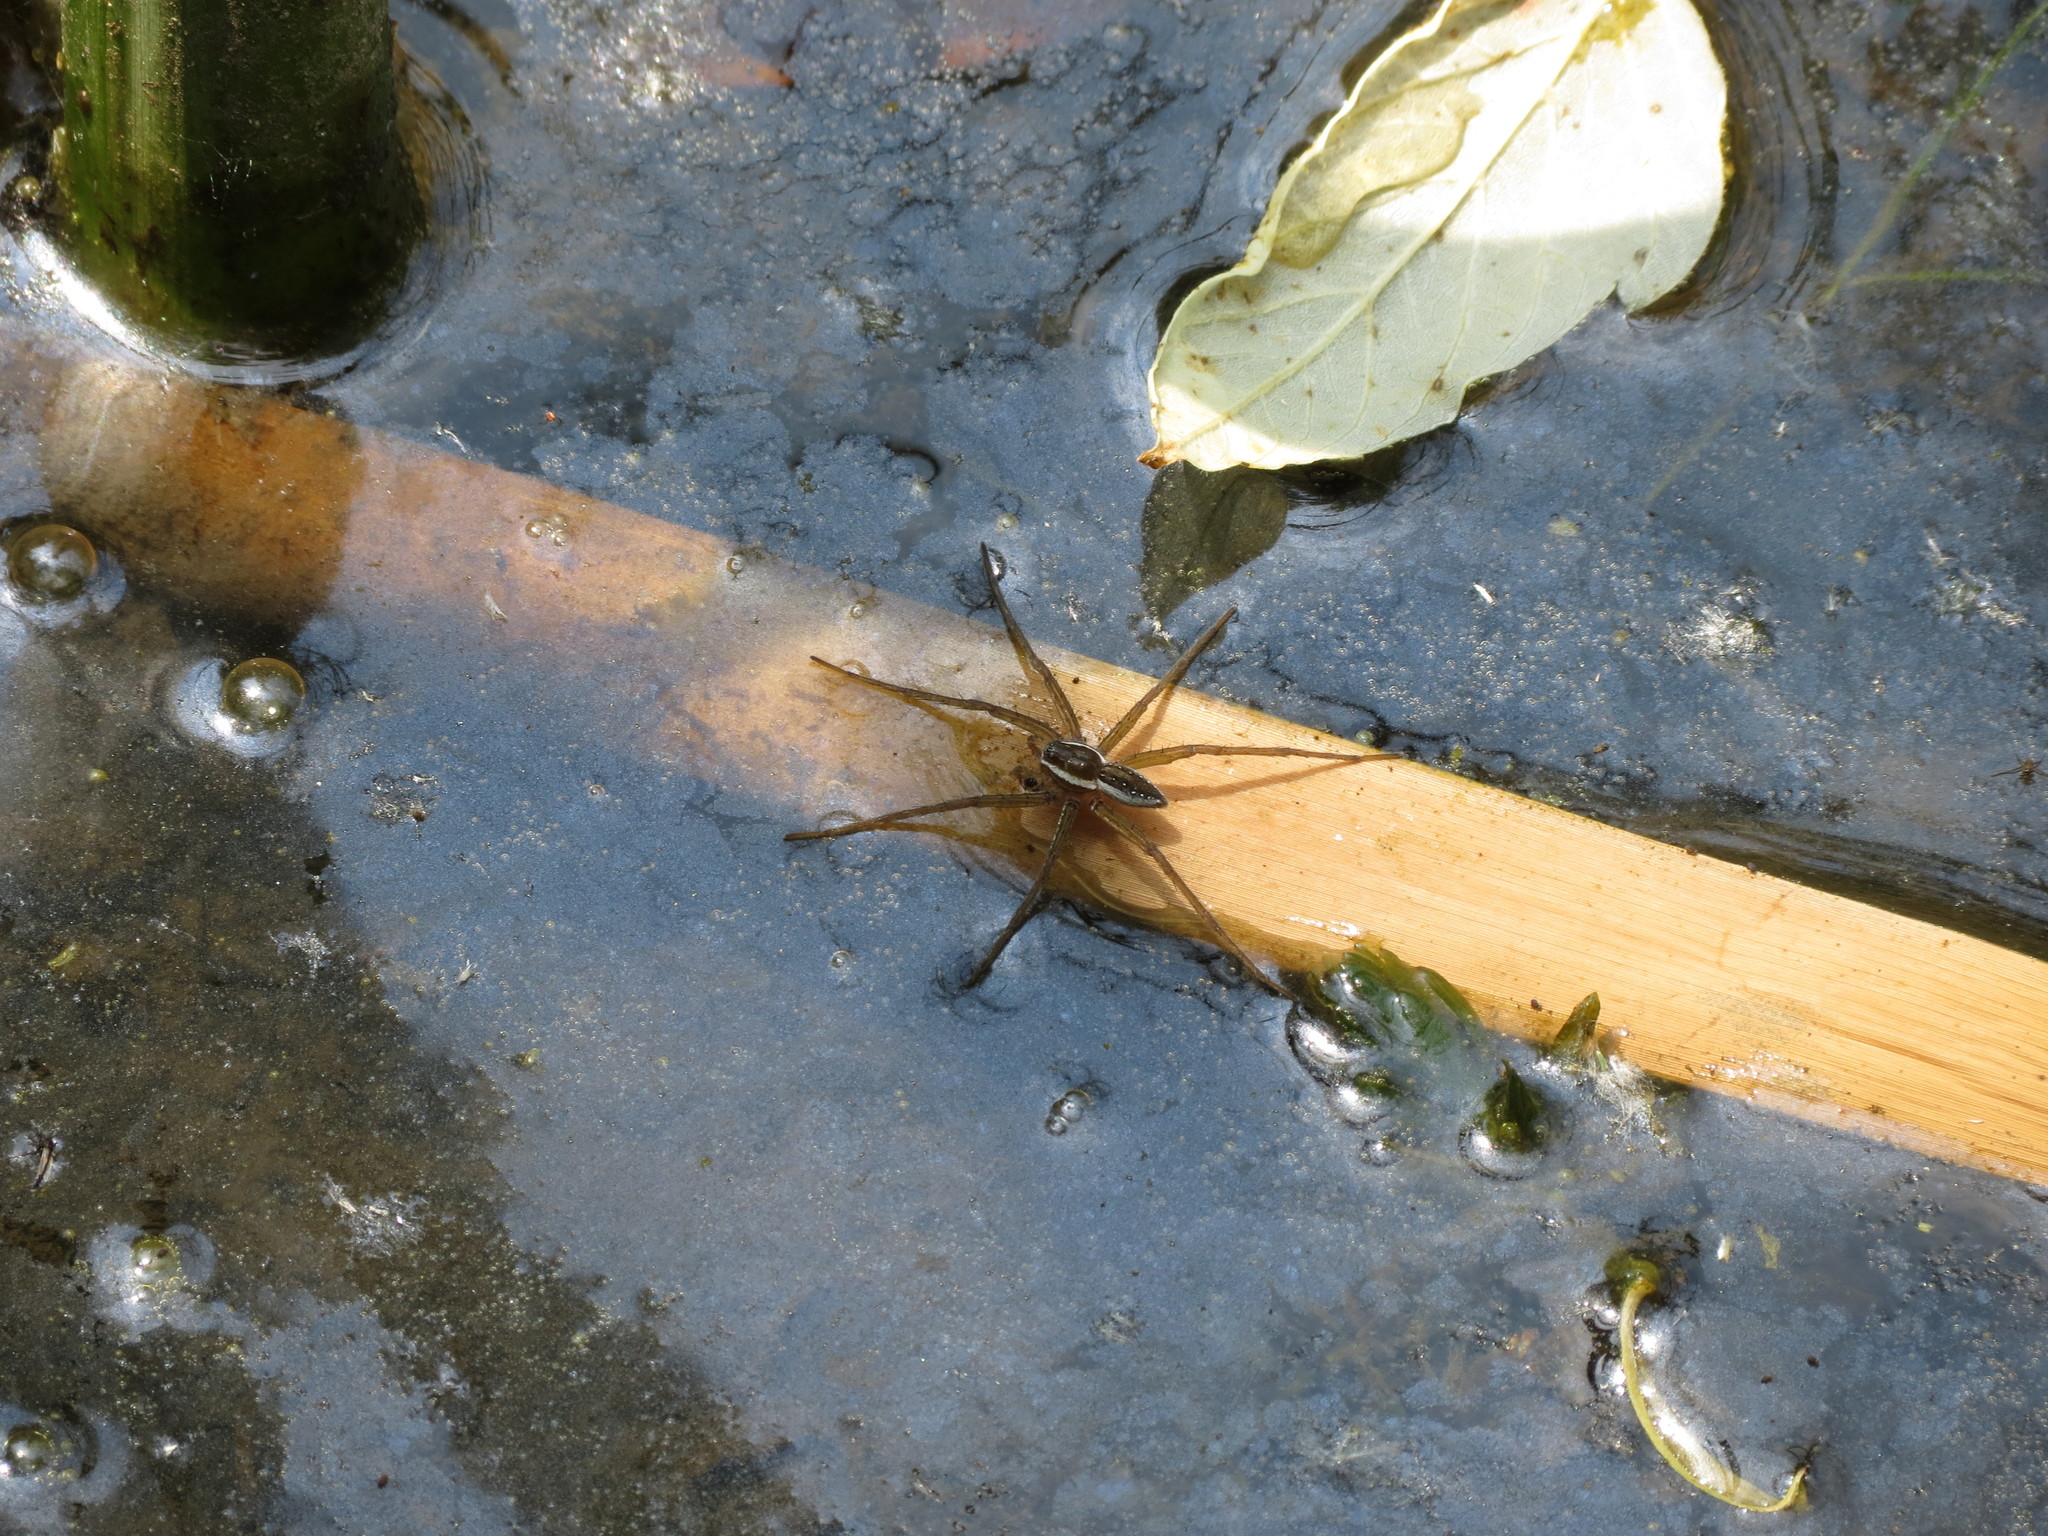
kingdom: Animalia
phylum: Arthropoda
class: Arachnida
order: Araneae
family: Pisauridae
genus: Dolomedes
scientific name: Dolomedes triton
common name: Six-spotted fishing spider
